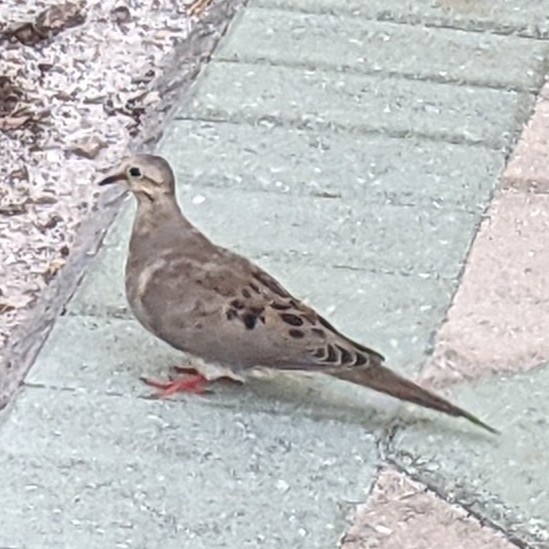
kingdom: Animalia
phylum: Chordata
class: Aves
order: Columbiformes
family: Columbidae
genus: Zenaida
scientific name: Zenaida macroura
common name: Mourning dove
